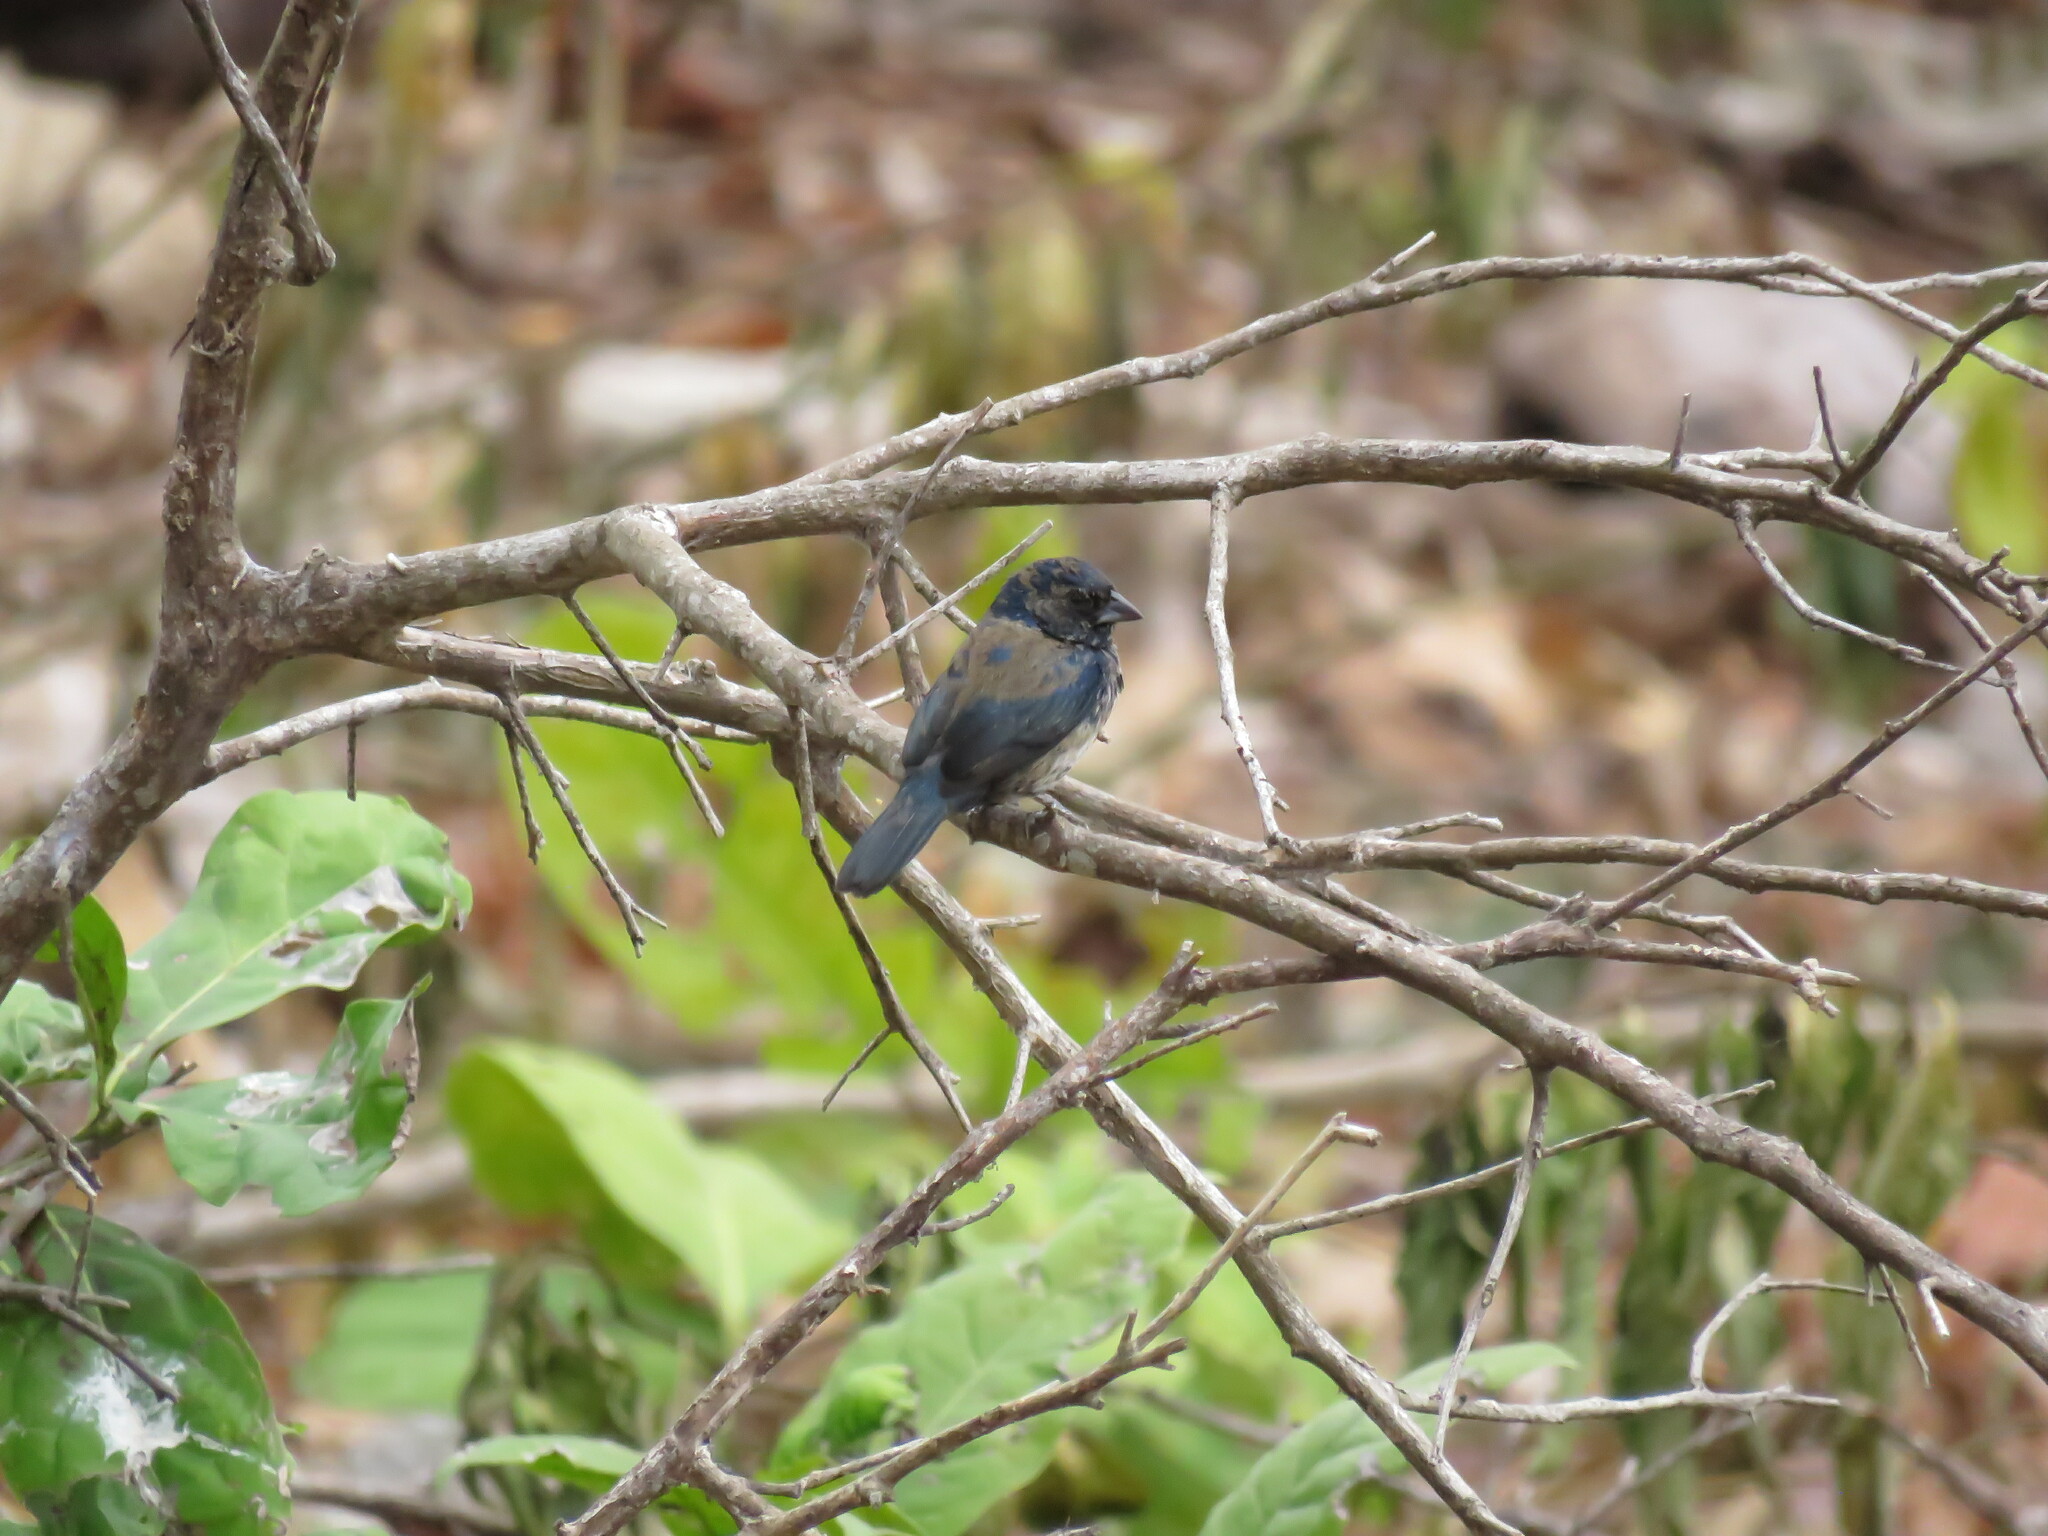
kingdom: Animalia
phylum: Chordata
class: Aves
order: Passeriformes
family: Thraupidae
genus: Volatinia
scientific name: Volatinia jacarina
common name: Blue-black grassquit
